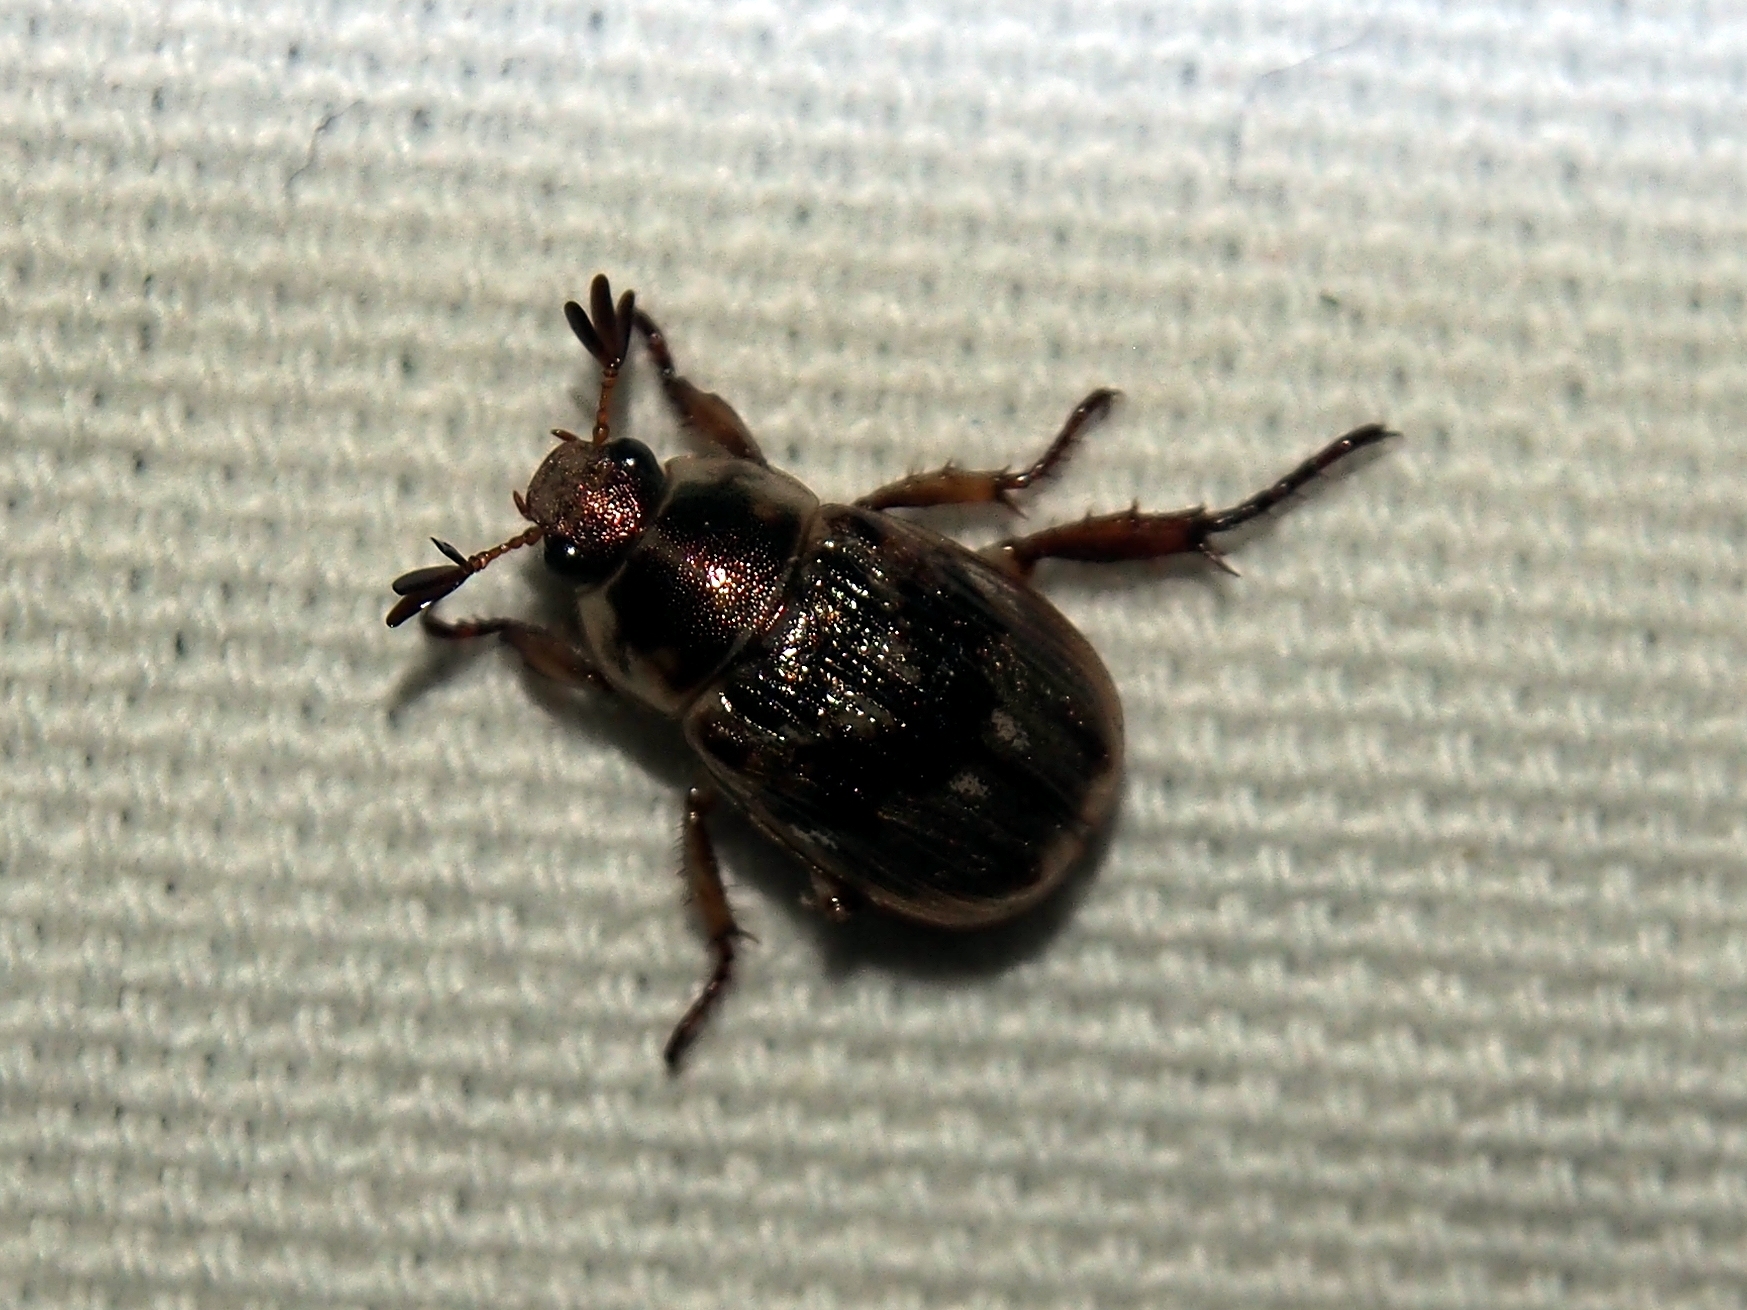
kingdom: Animalia
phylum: Arthropoda
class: Insecta
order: Coleoptera
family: Scarabaeidae
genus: Exomala
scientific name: Exomala orientalis
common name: Oriental beetle
